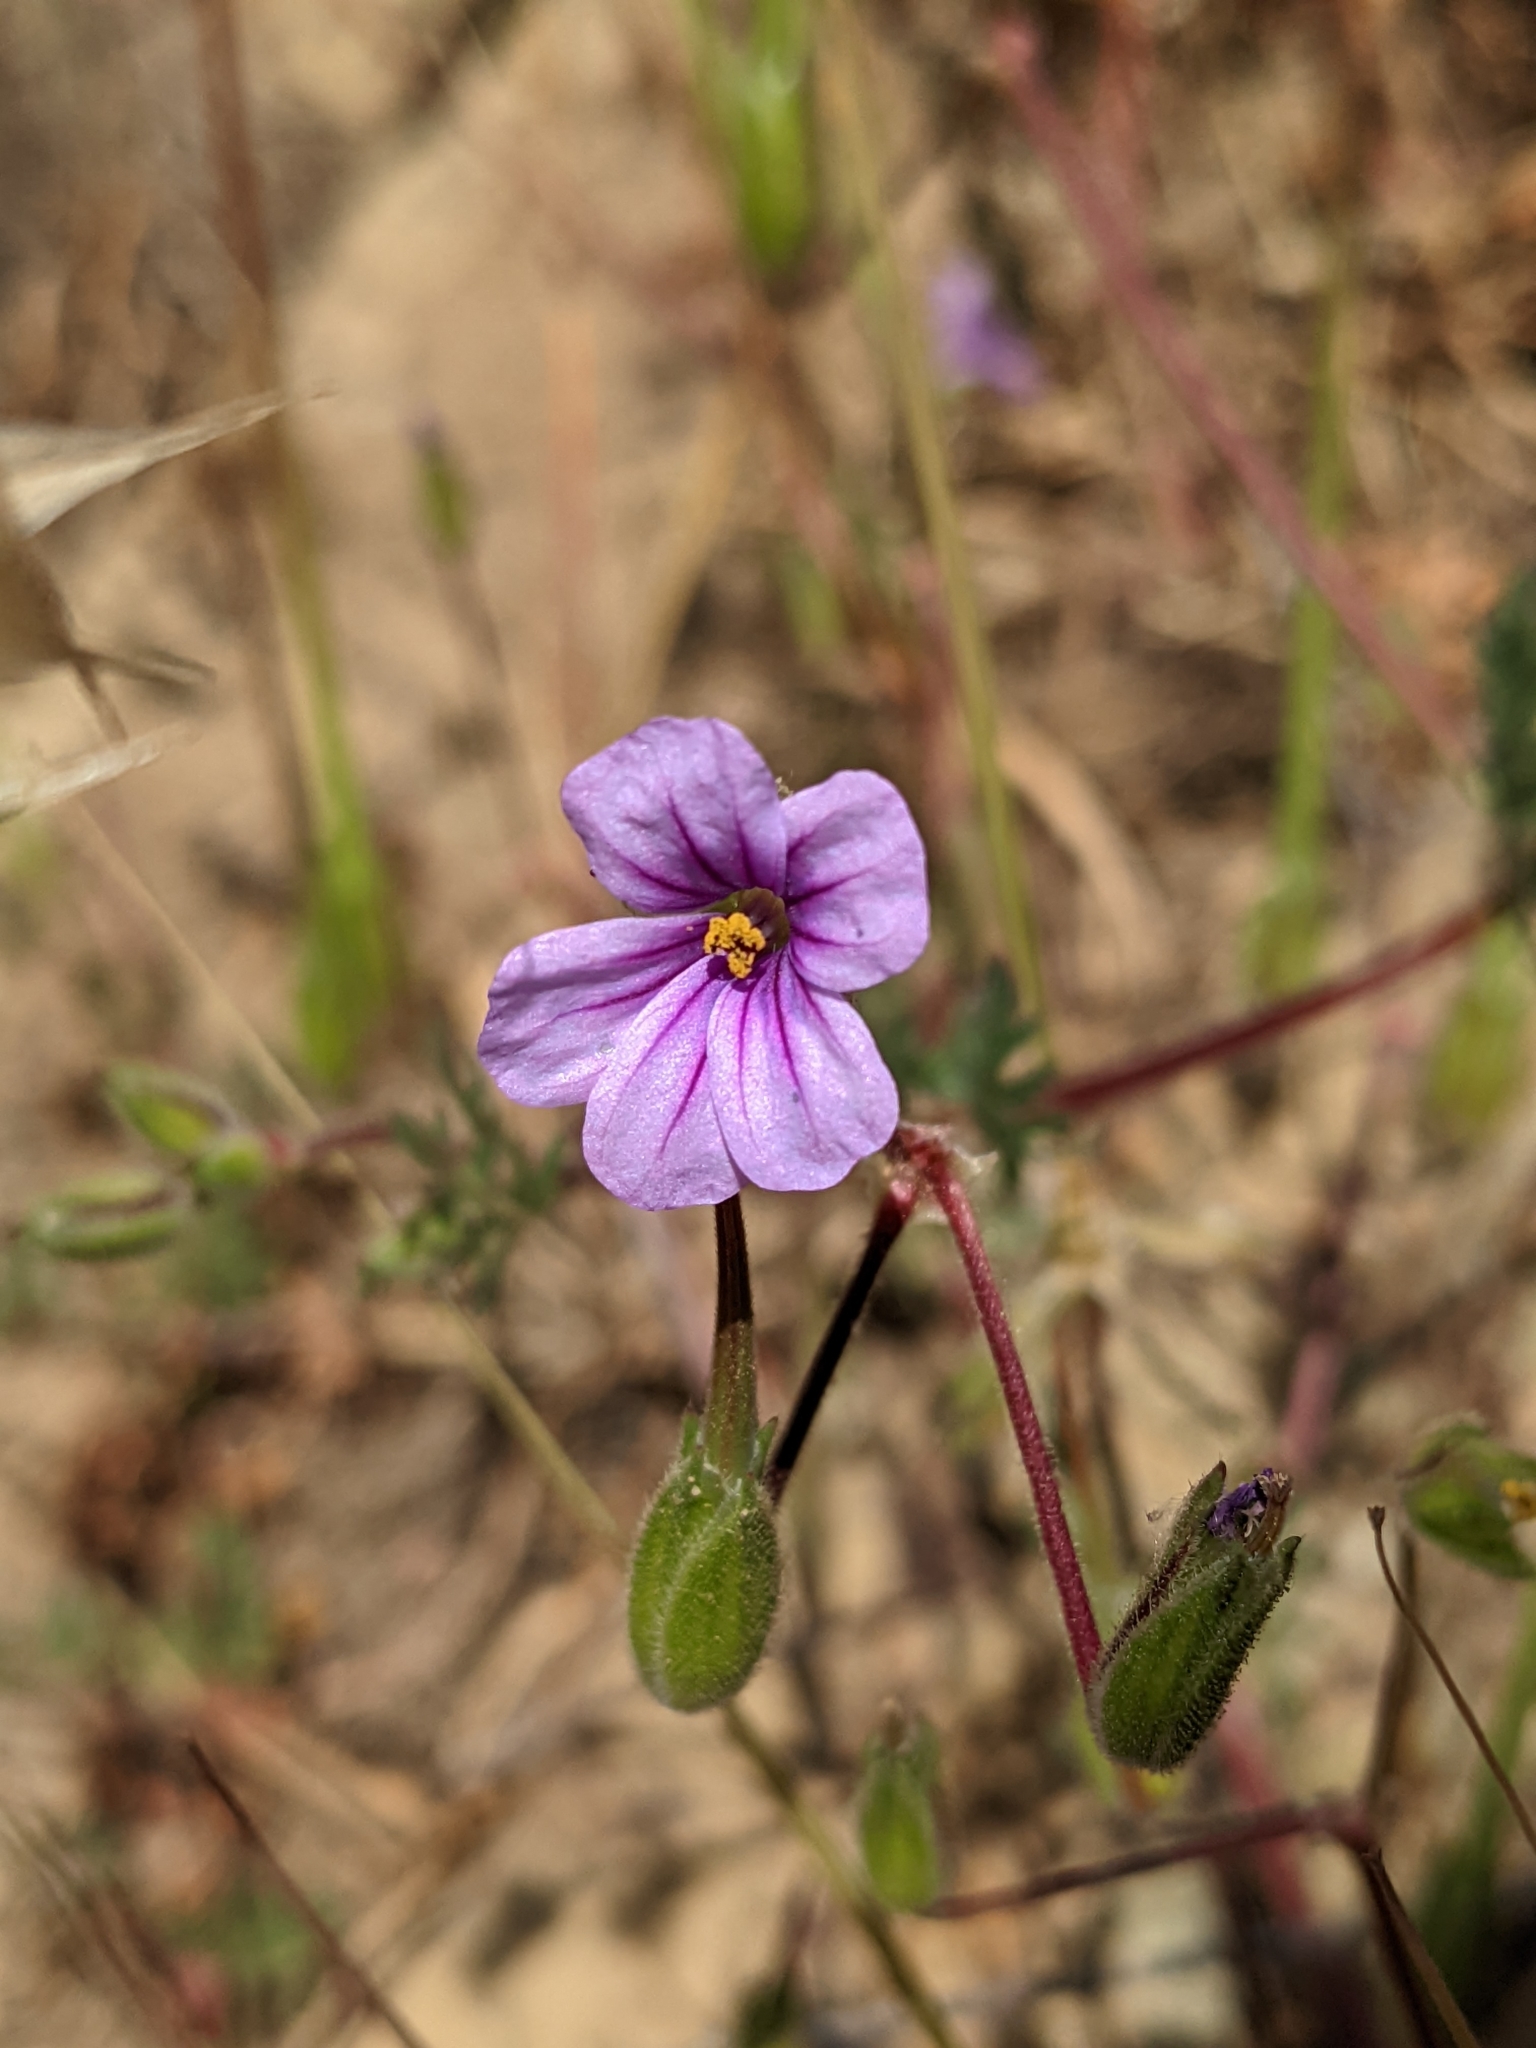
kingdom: Plantae
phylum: Tracheophyta
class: Magnoliopsida
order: Geraniales
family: Geraniaceae
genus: Erodium
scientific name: Erodium botrys
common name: Mediterranean stork's-bill
